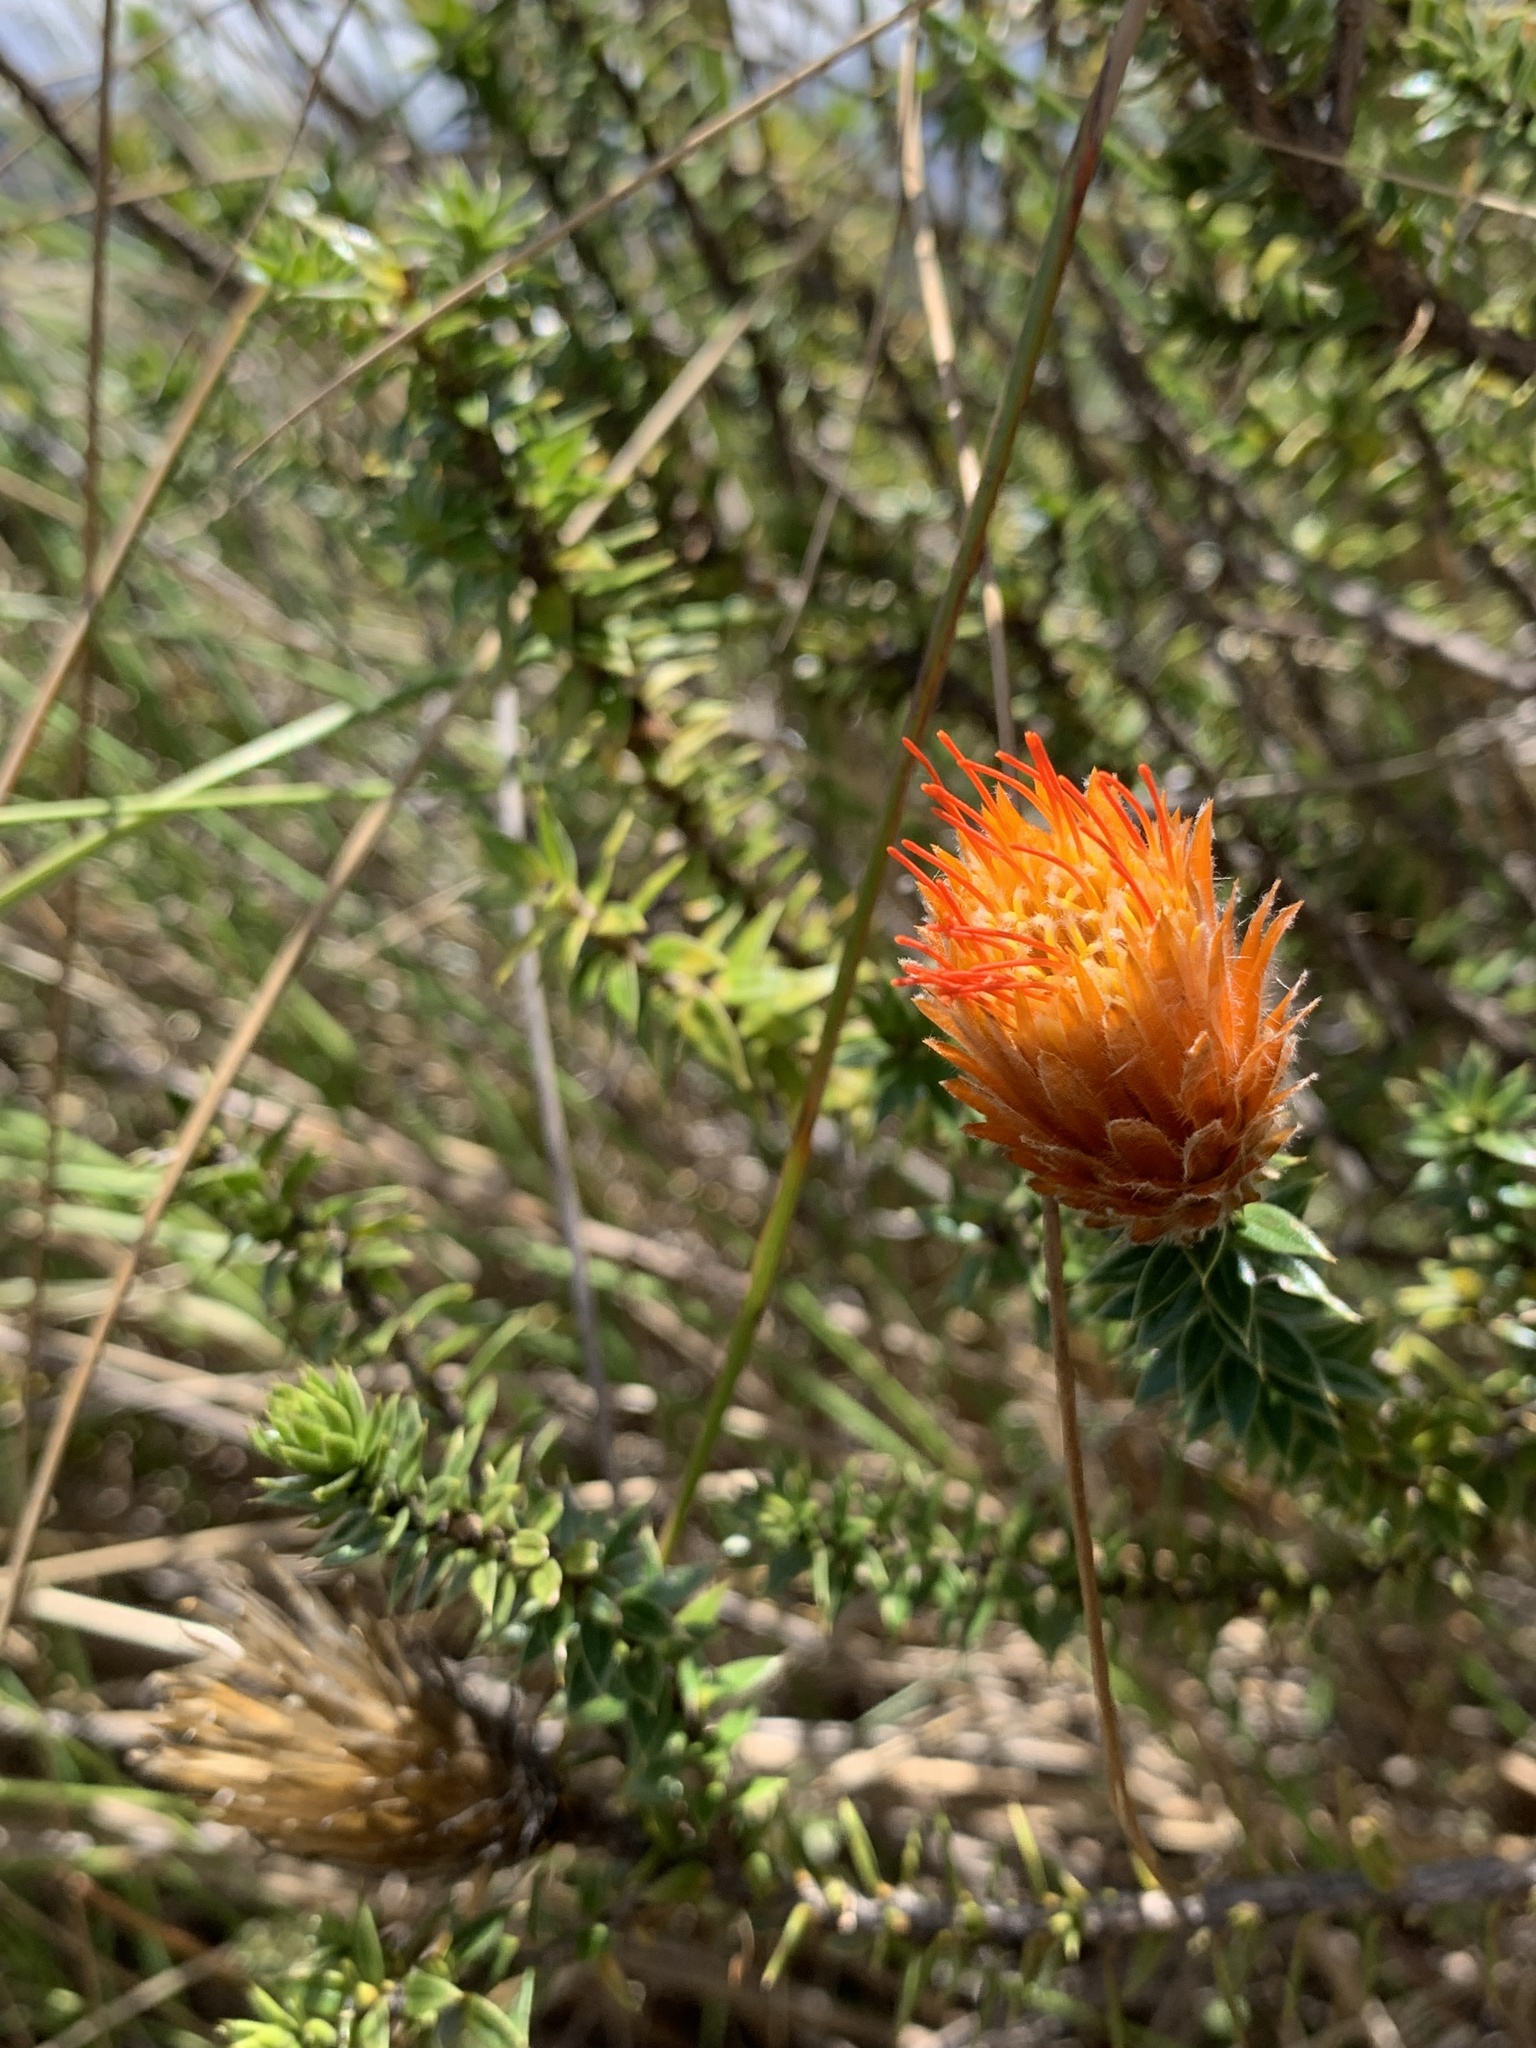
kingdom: Plantae
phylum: Tracheophyta
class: Magnoliopsida
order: Asterales
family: Asteraceae
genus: Chuquiraga
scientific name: Chuquiraga jussieui
